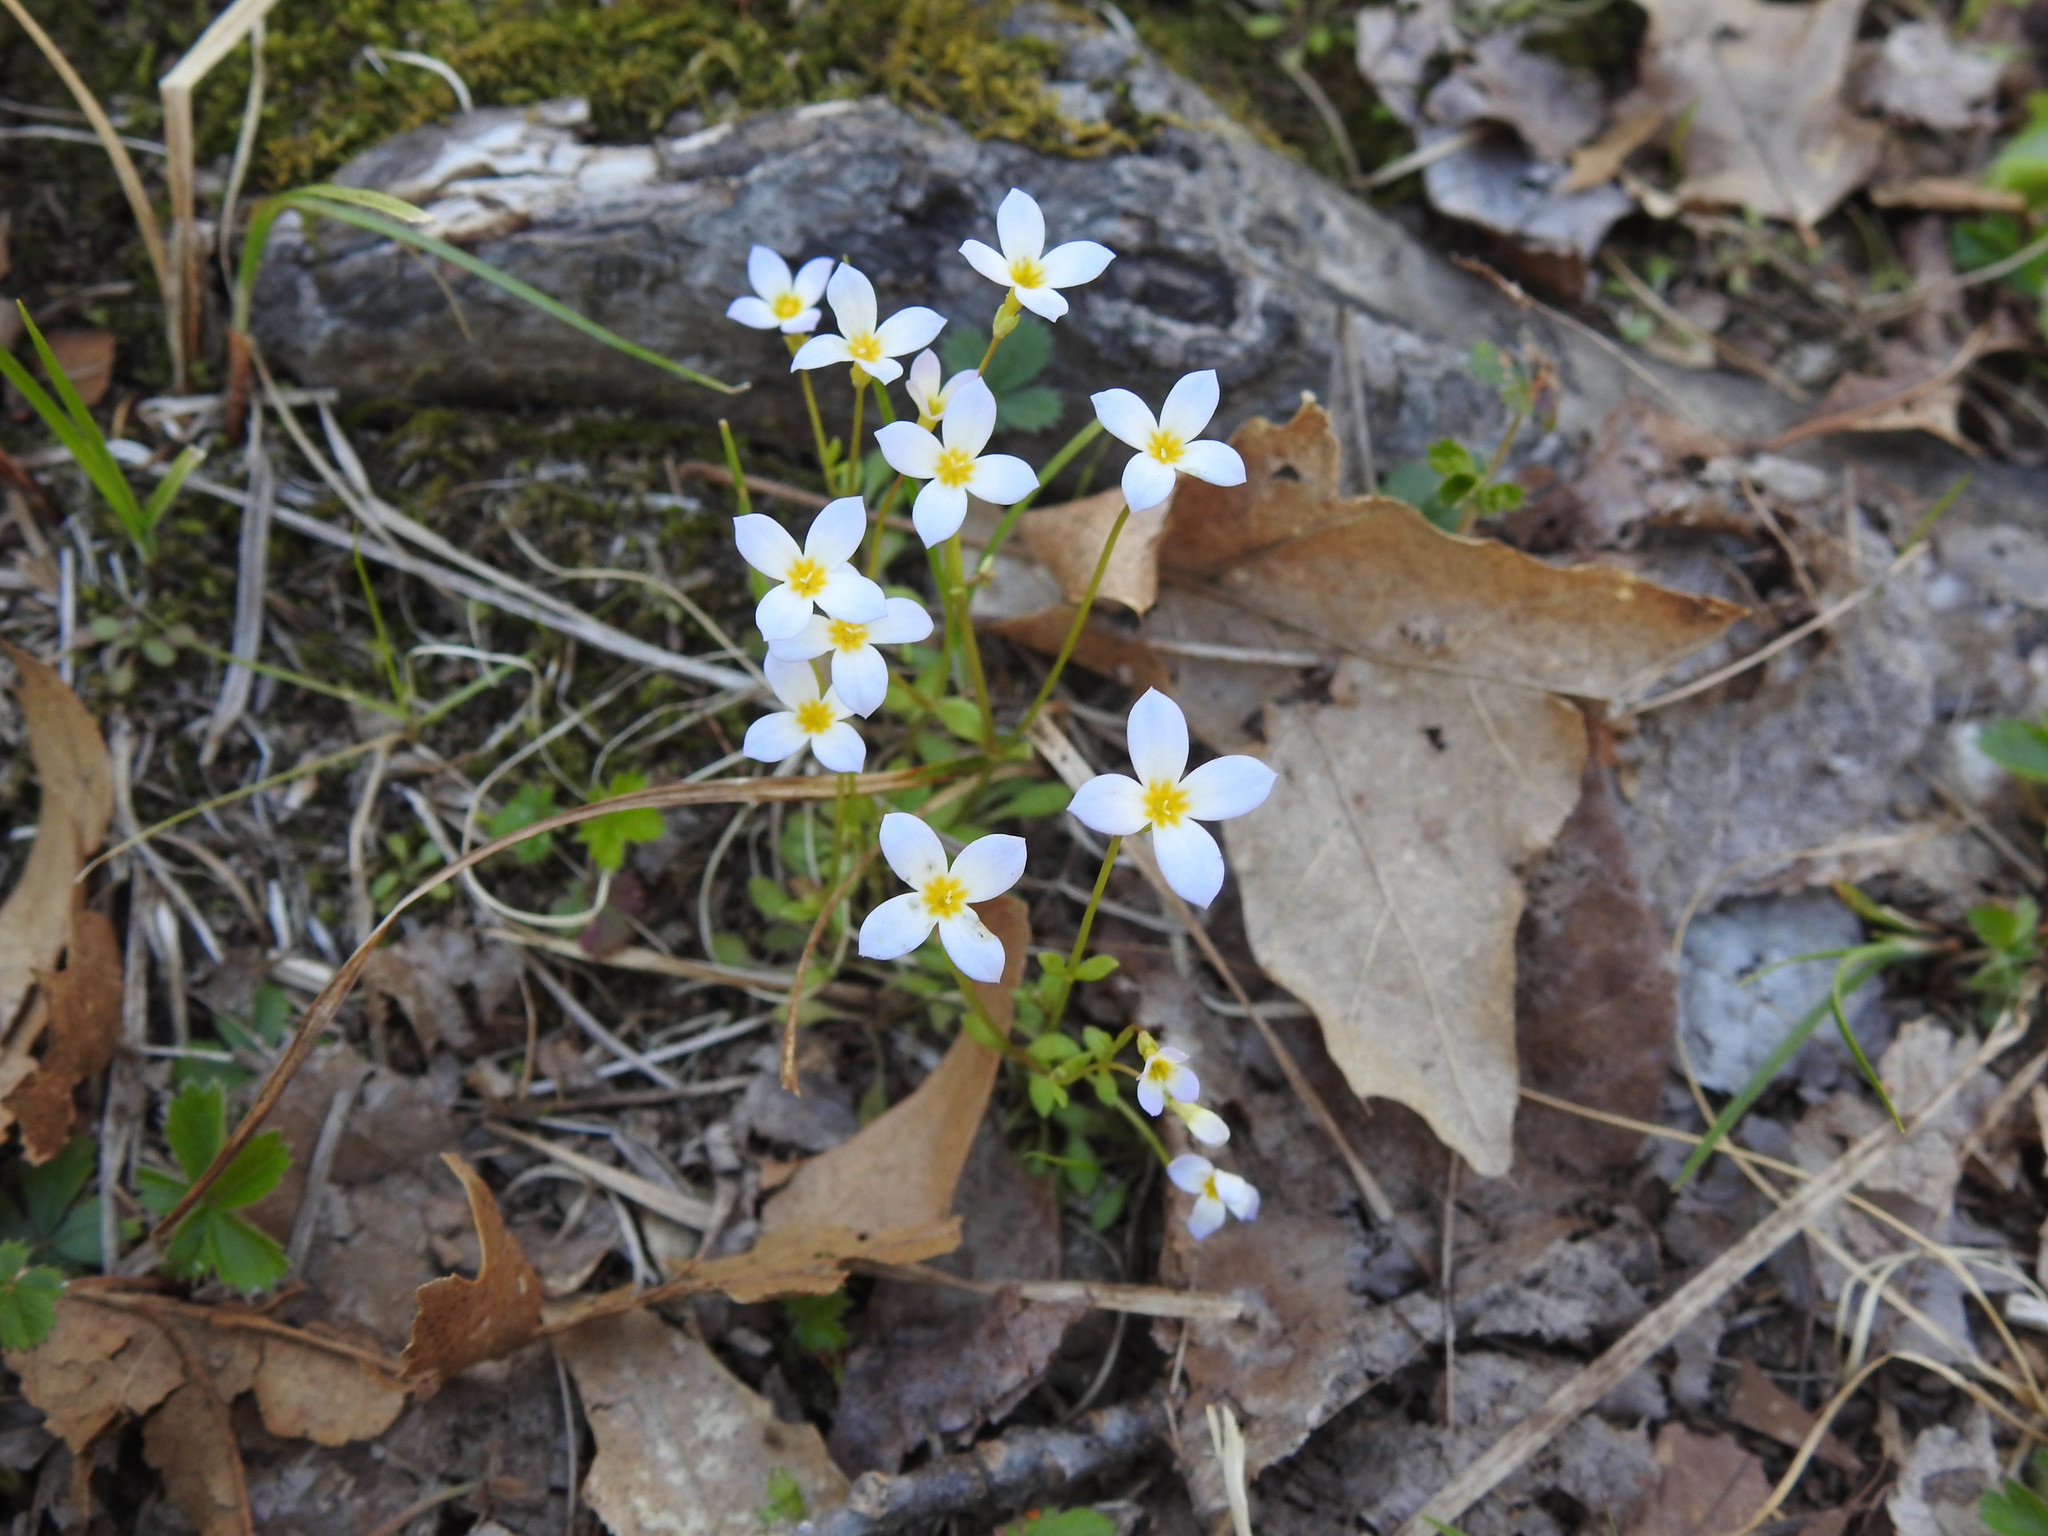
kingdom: Plantae
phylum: Tracheophyta
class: Magnoliopsida
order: Gentianales
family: Rubiaceae
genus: Houstonia
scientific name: Houstonia caerulea
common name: Bluets
